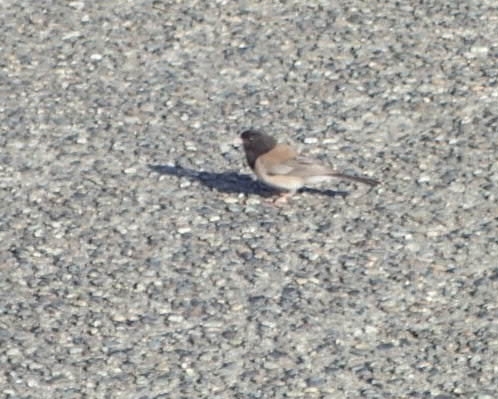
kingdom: Animalia
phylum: Chordata
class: Aves
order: Passeriformes
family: Passerellidae
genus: Junco
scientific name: Junco hyemalis
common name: Dark-eyed junco
